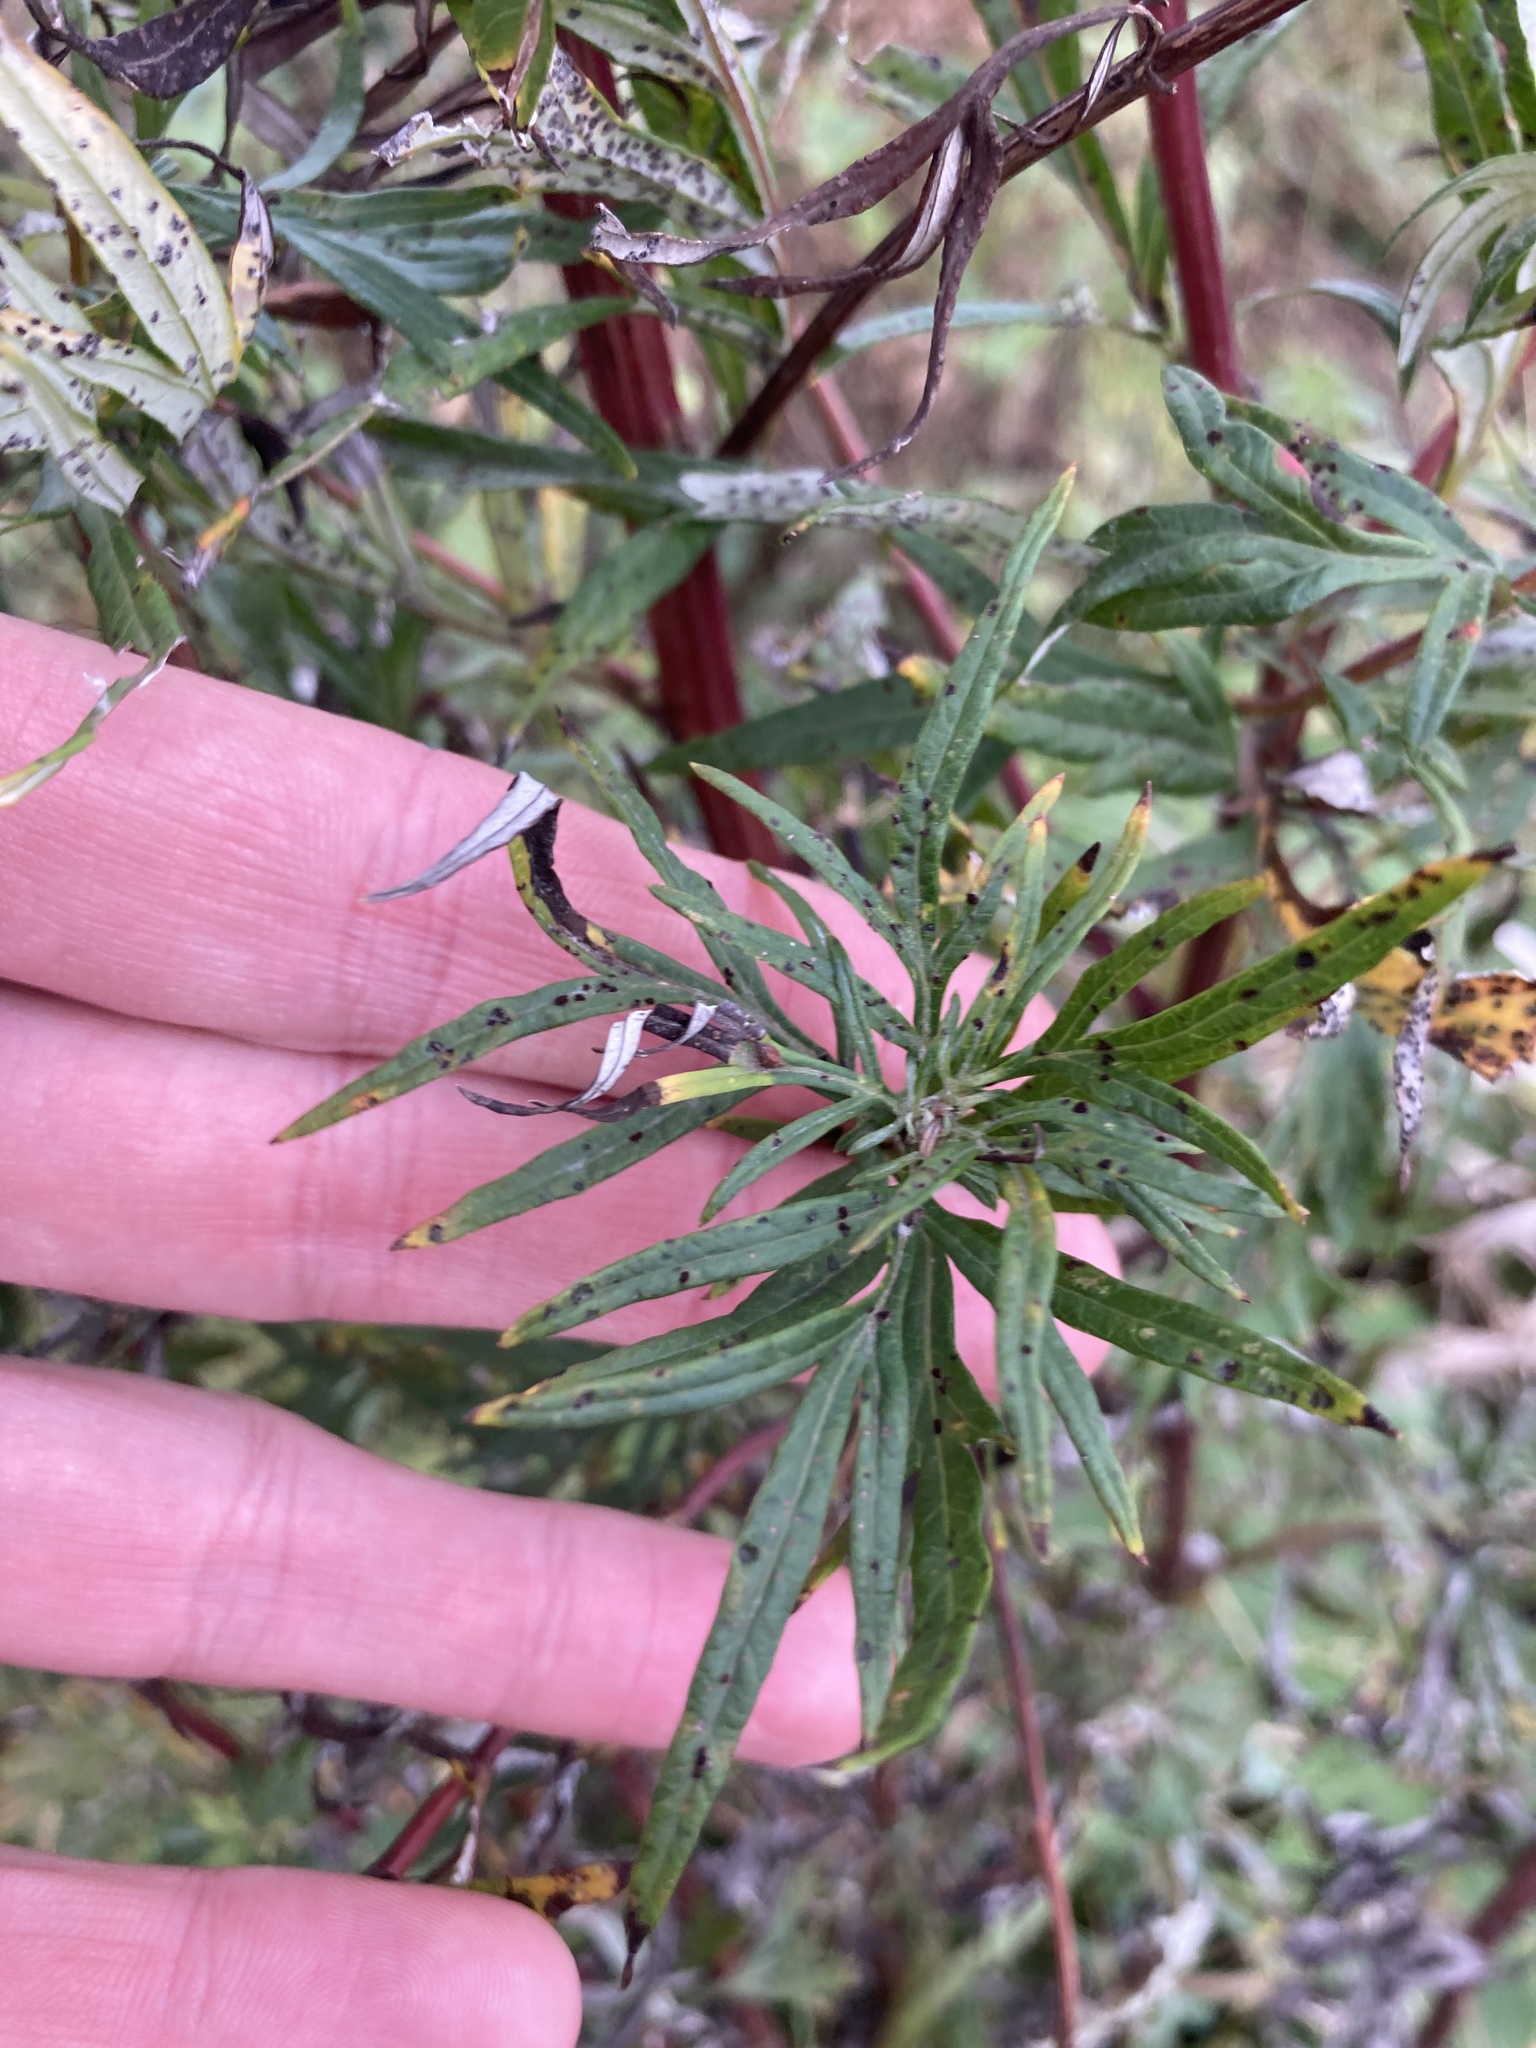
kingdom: Plantae
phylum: Tracheophyta
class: Magnoliopsida
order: Asterales
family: Asteraceae
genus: Artemisia
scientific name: Artemisia vulgaris
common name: Mugwort
